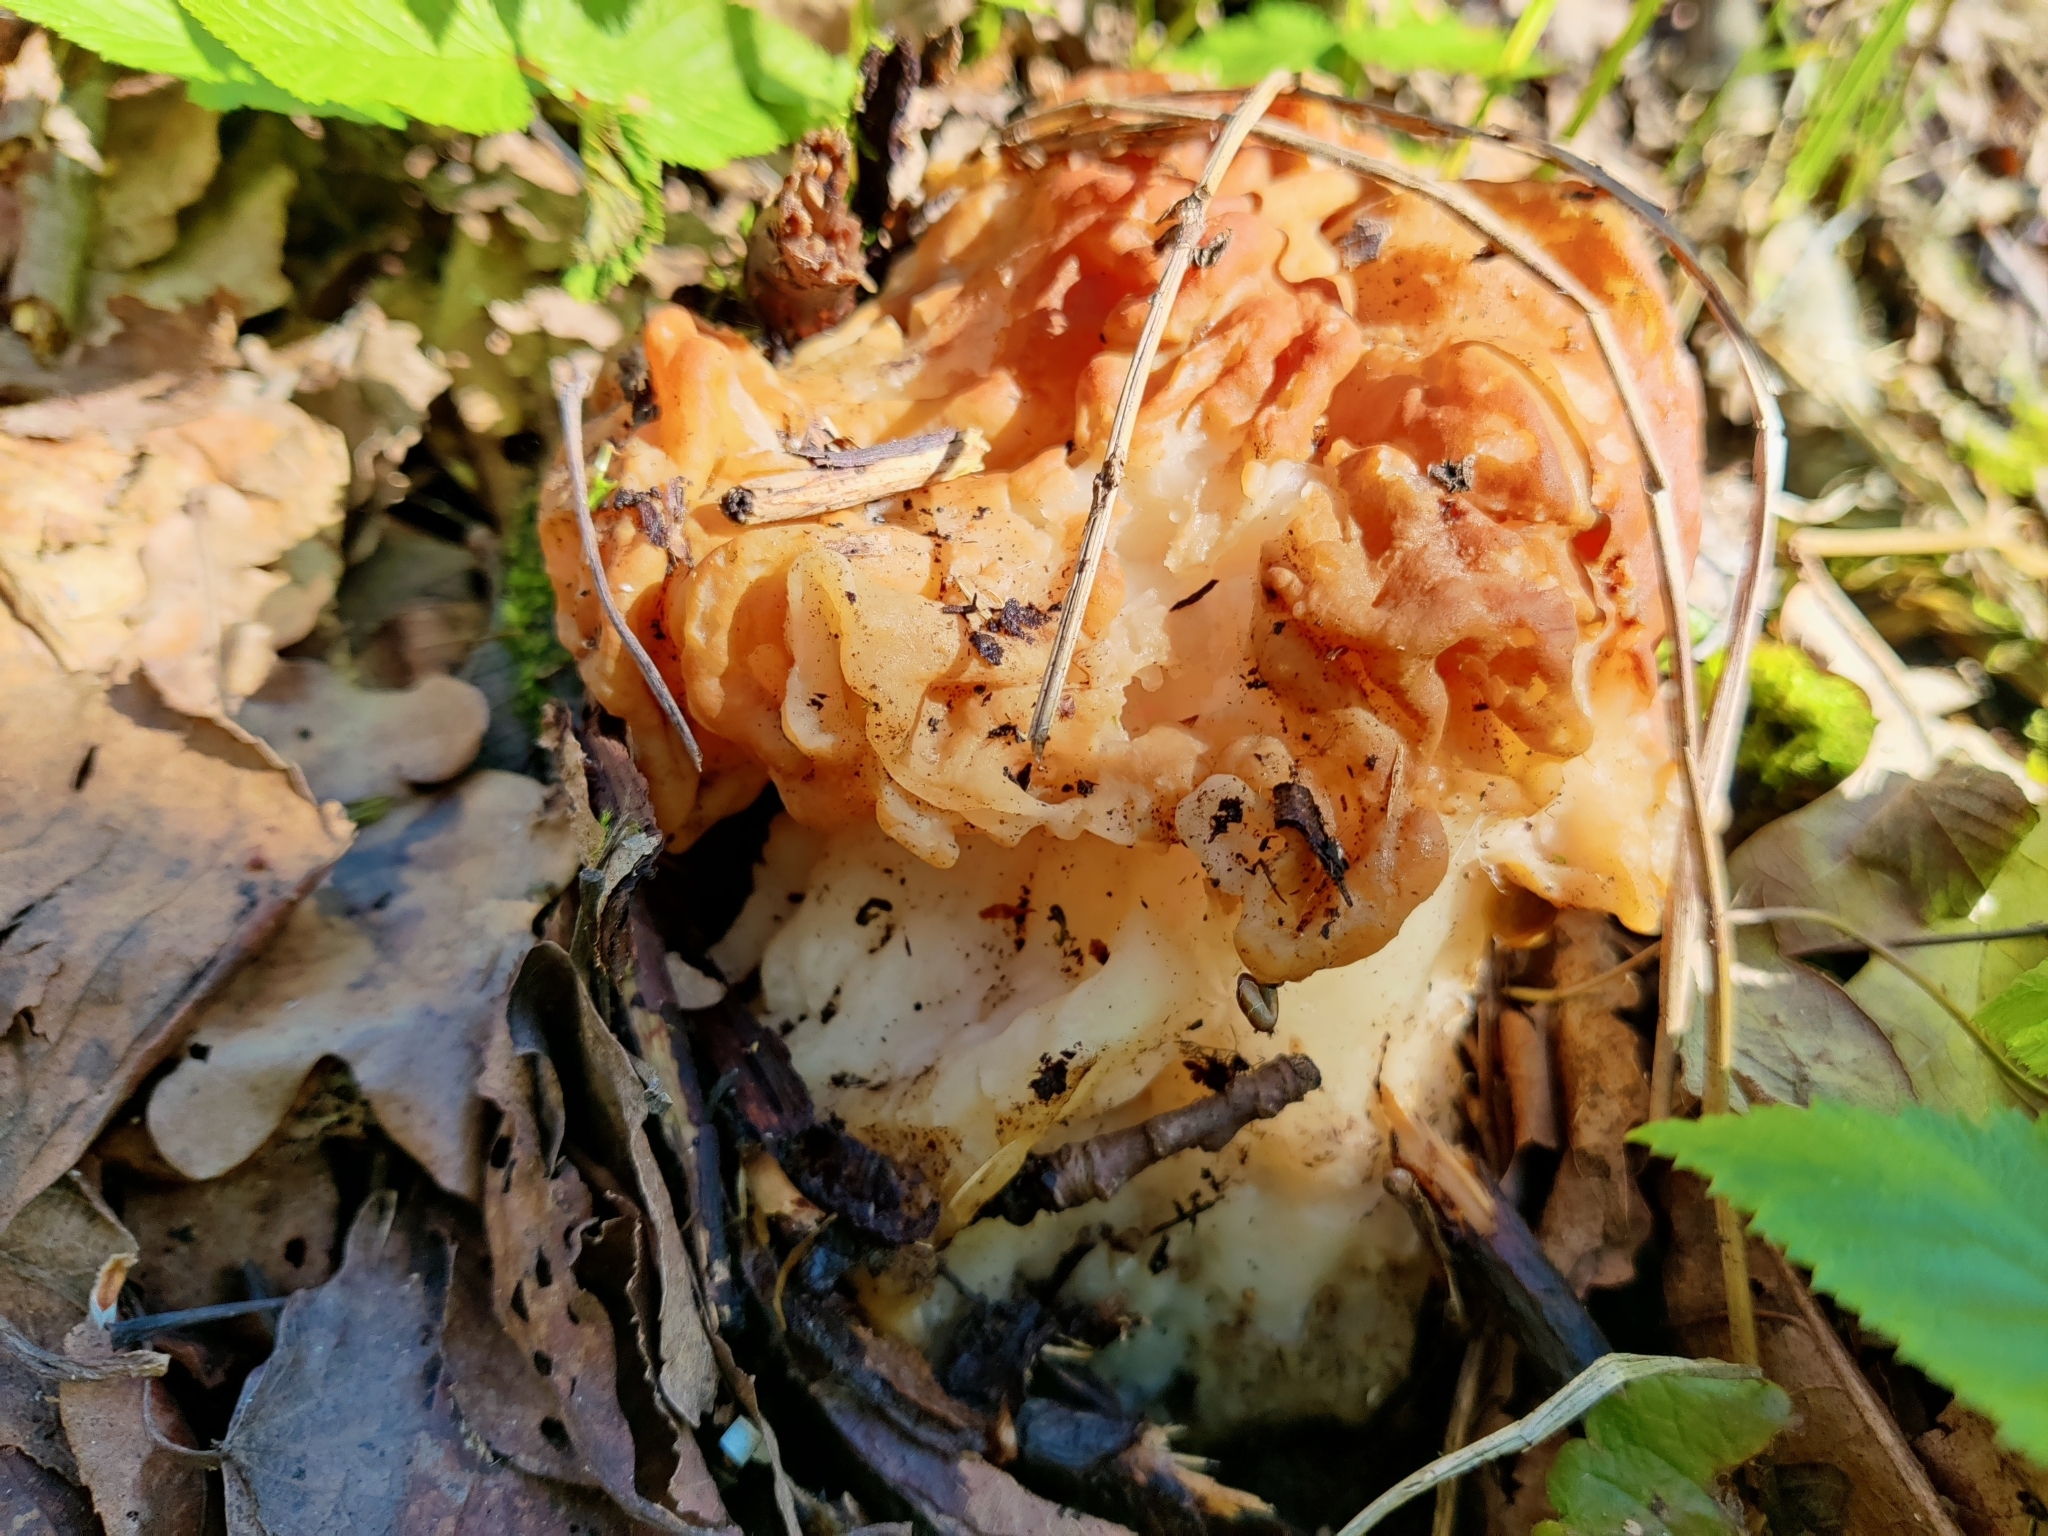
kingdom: Fungi
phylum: Ascomycota
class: Pezizomycetes
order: Pezizales
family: Discinaceae
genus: Gyromitra
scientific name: Gyromitra gigas
